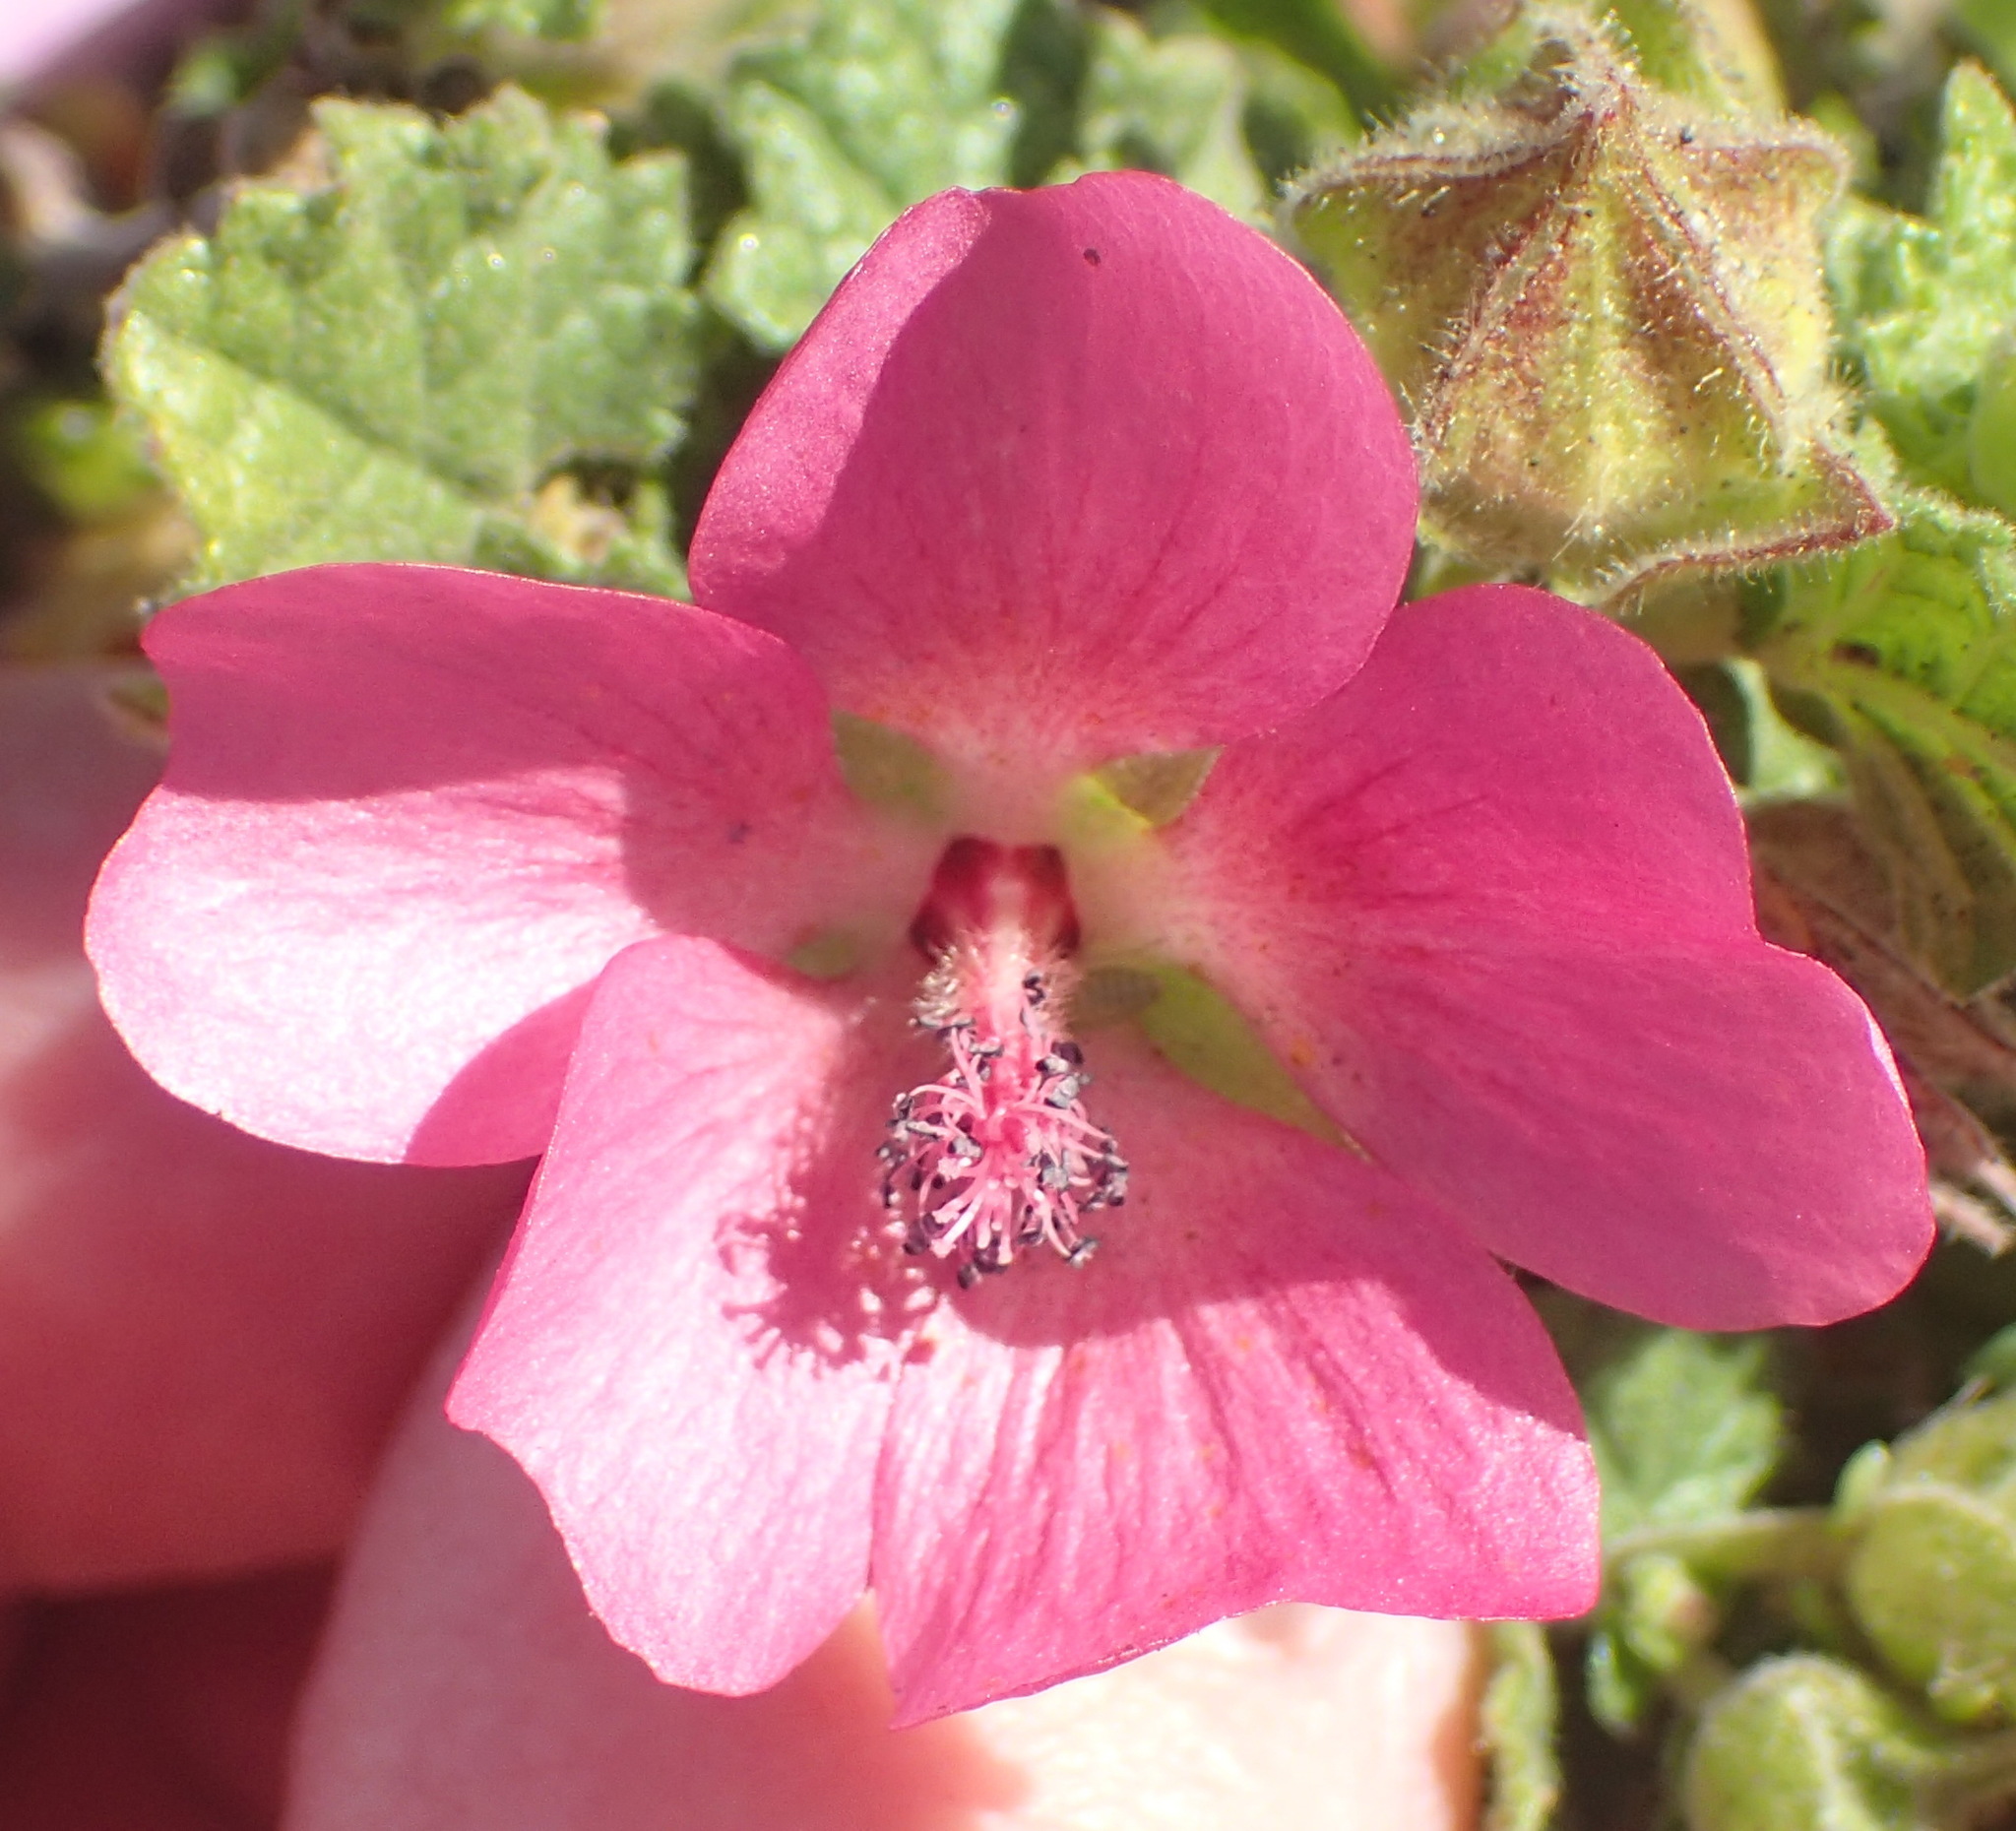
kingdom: Plantae
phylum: Tracheophyta
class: Magnoliopsida
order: Malvales
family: Malvaceae
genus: Anisodontea
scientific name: Anisodontea scabrosa
